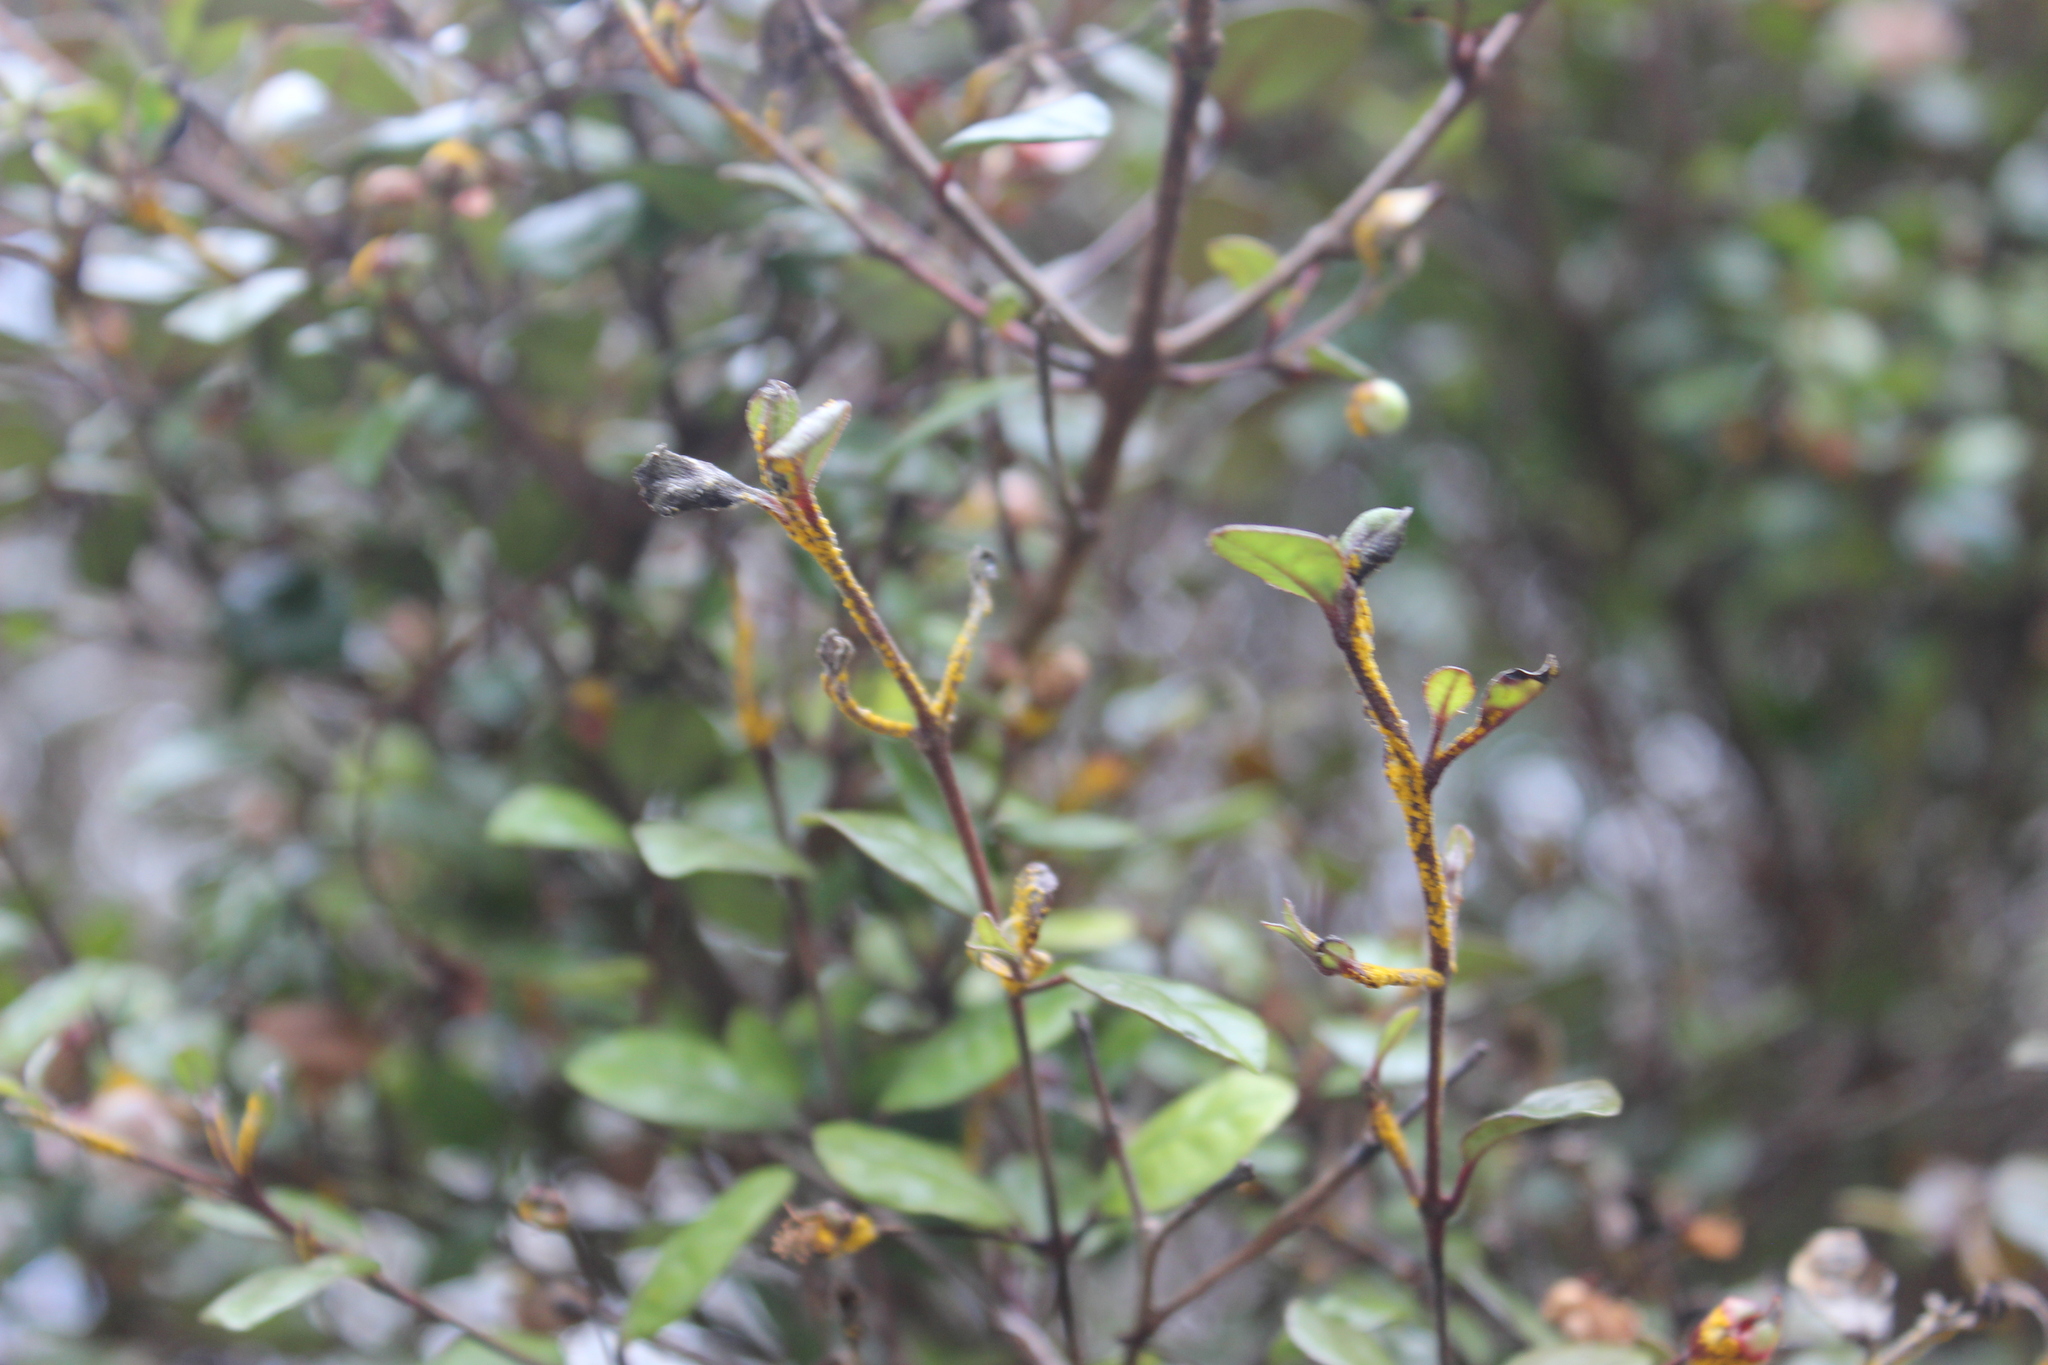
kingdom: Fungi
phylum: Basidiomycota
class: Pucciniomycetes
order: Pucciniales
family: Sphaerophragmiaceae
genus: Austropuccinia
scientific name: Austropuccinia psidii
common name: Myrtle rust
